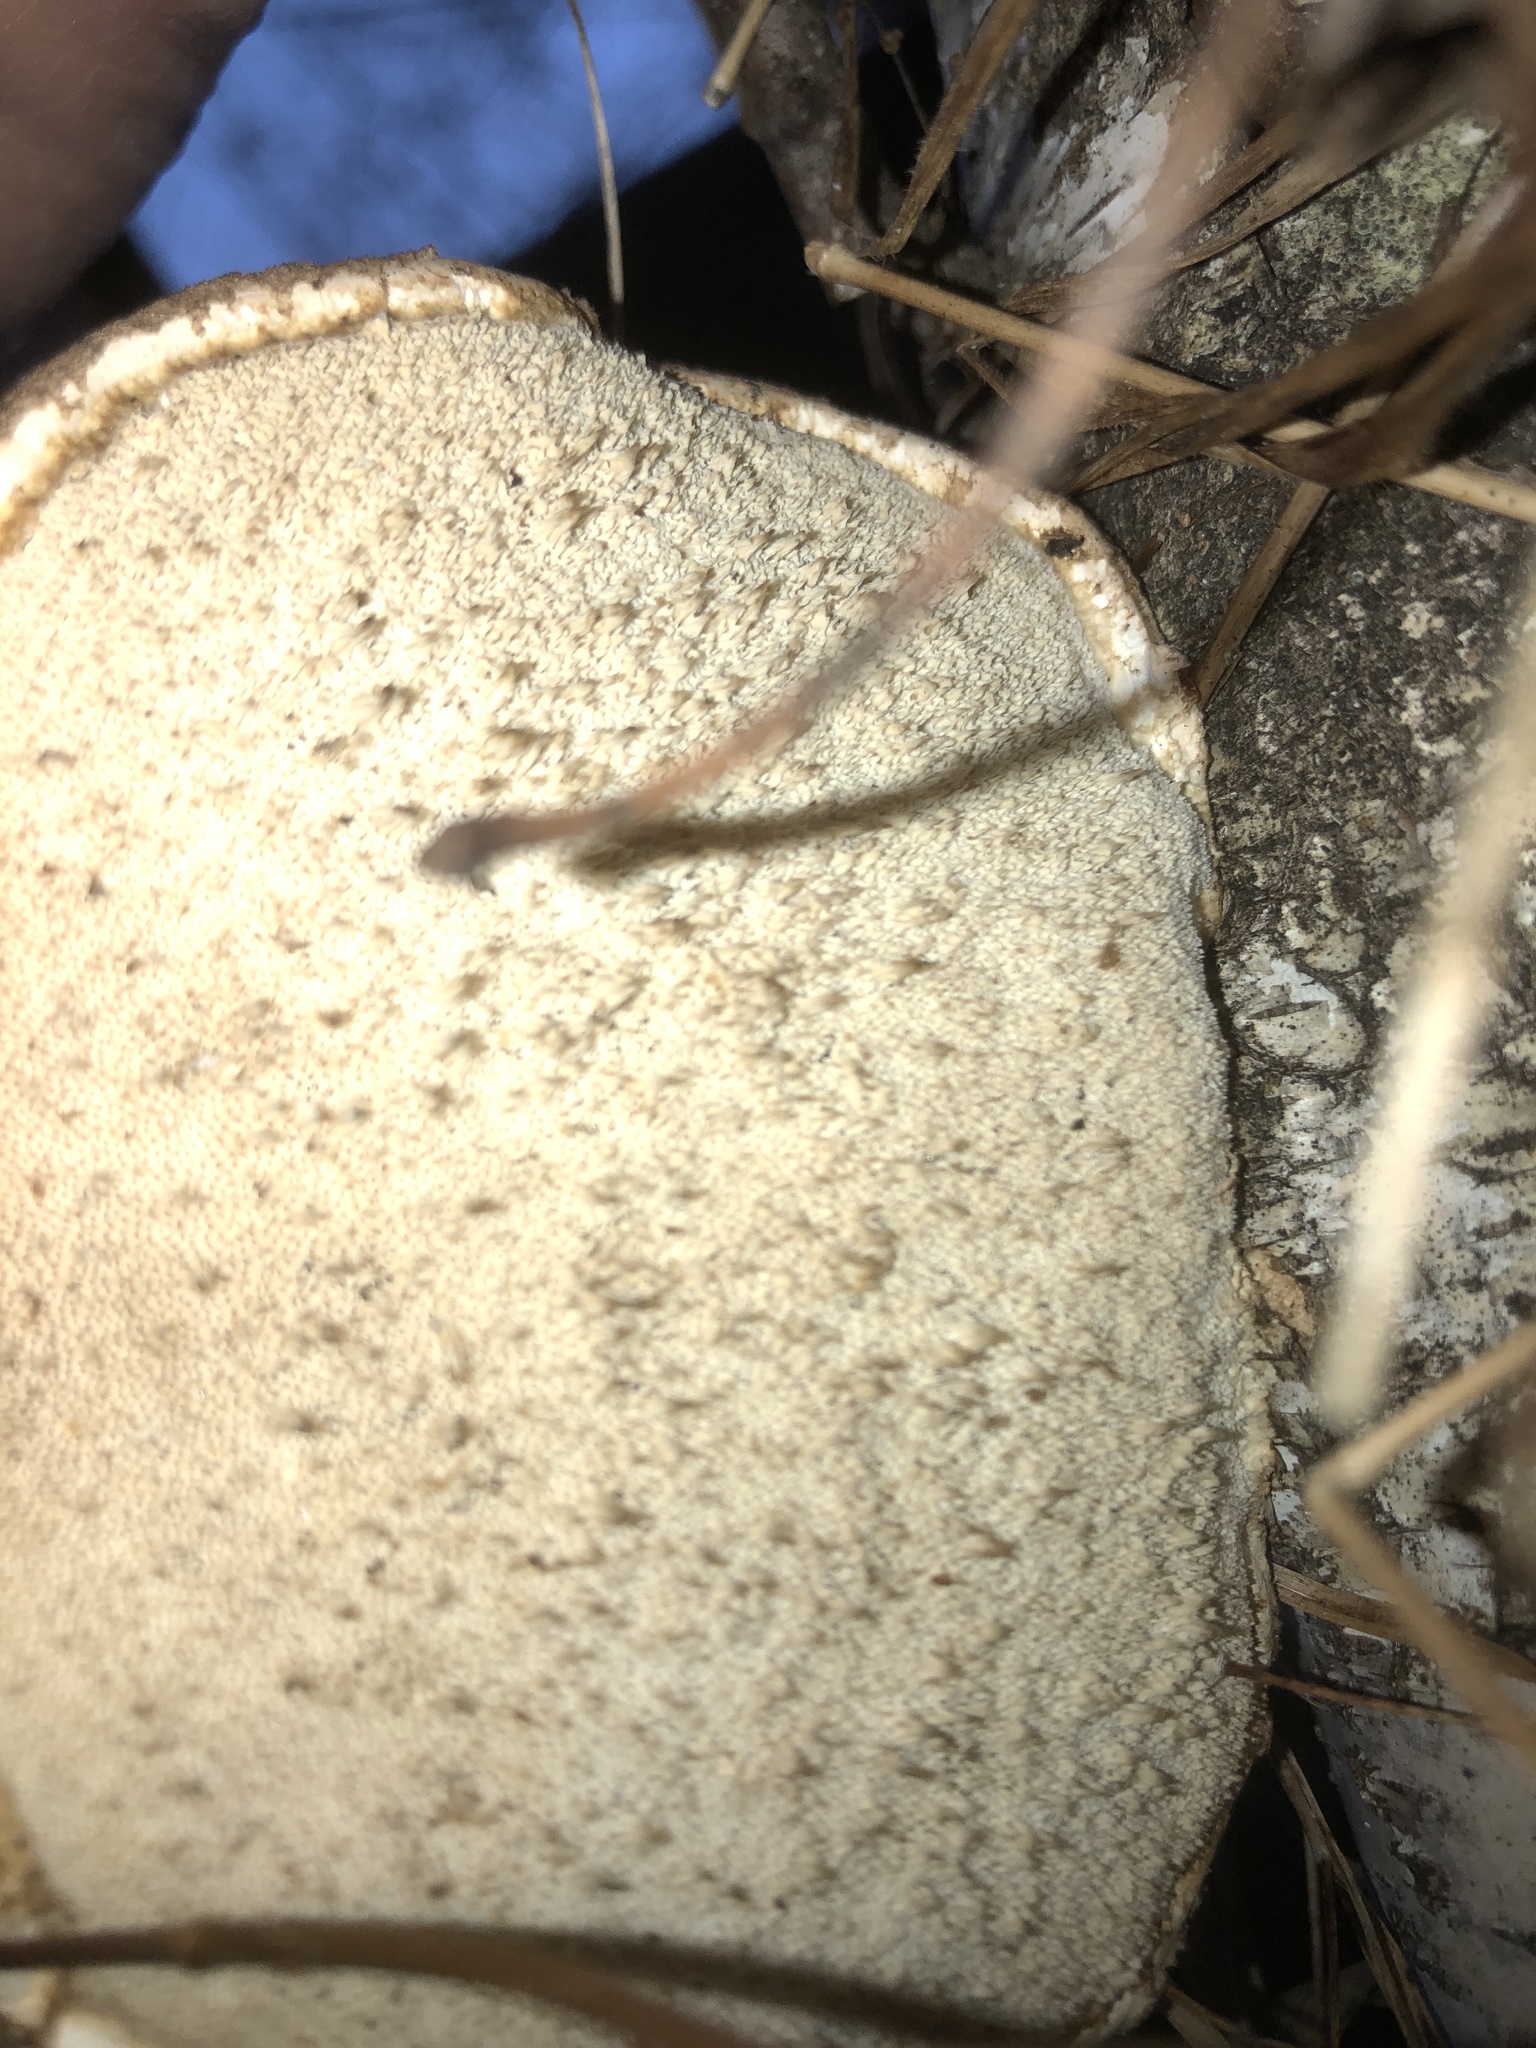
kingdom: Fungi
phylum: Basidiomycota
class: Agaricomycetes
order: Polyporales
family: Fomitopsidaceae
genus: Fomitopsis
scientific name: Fomitopsis betulina
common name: Birch polypore
